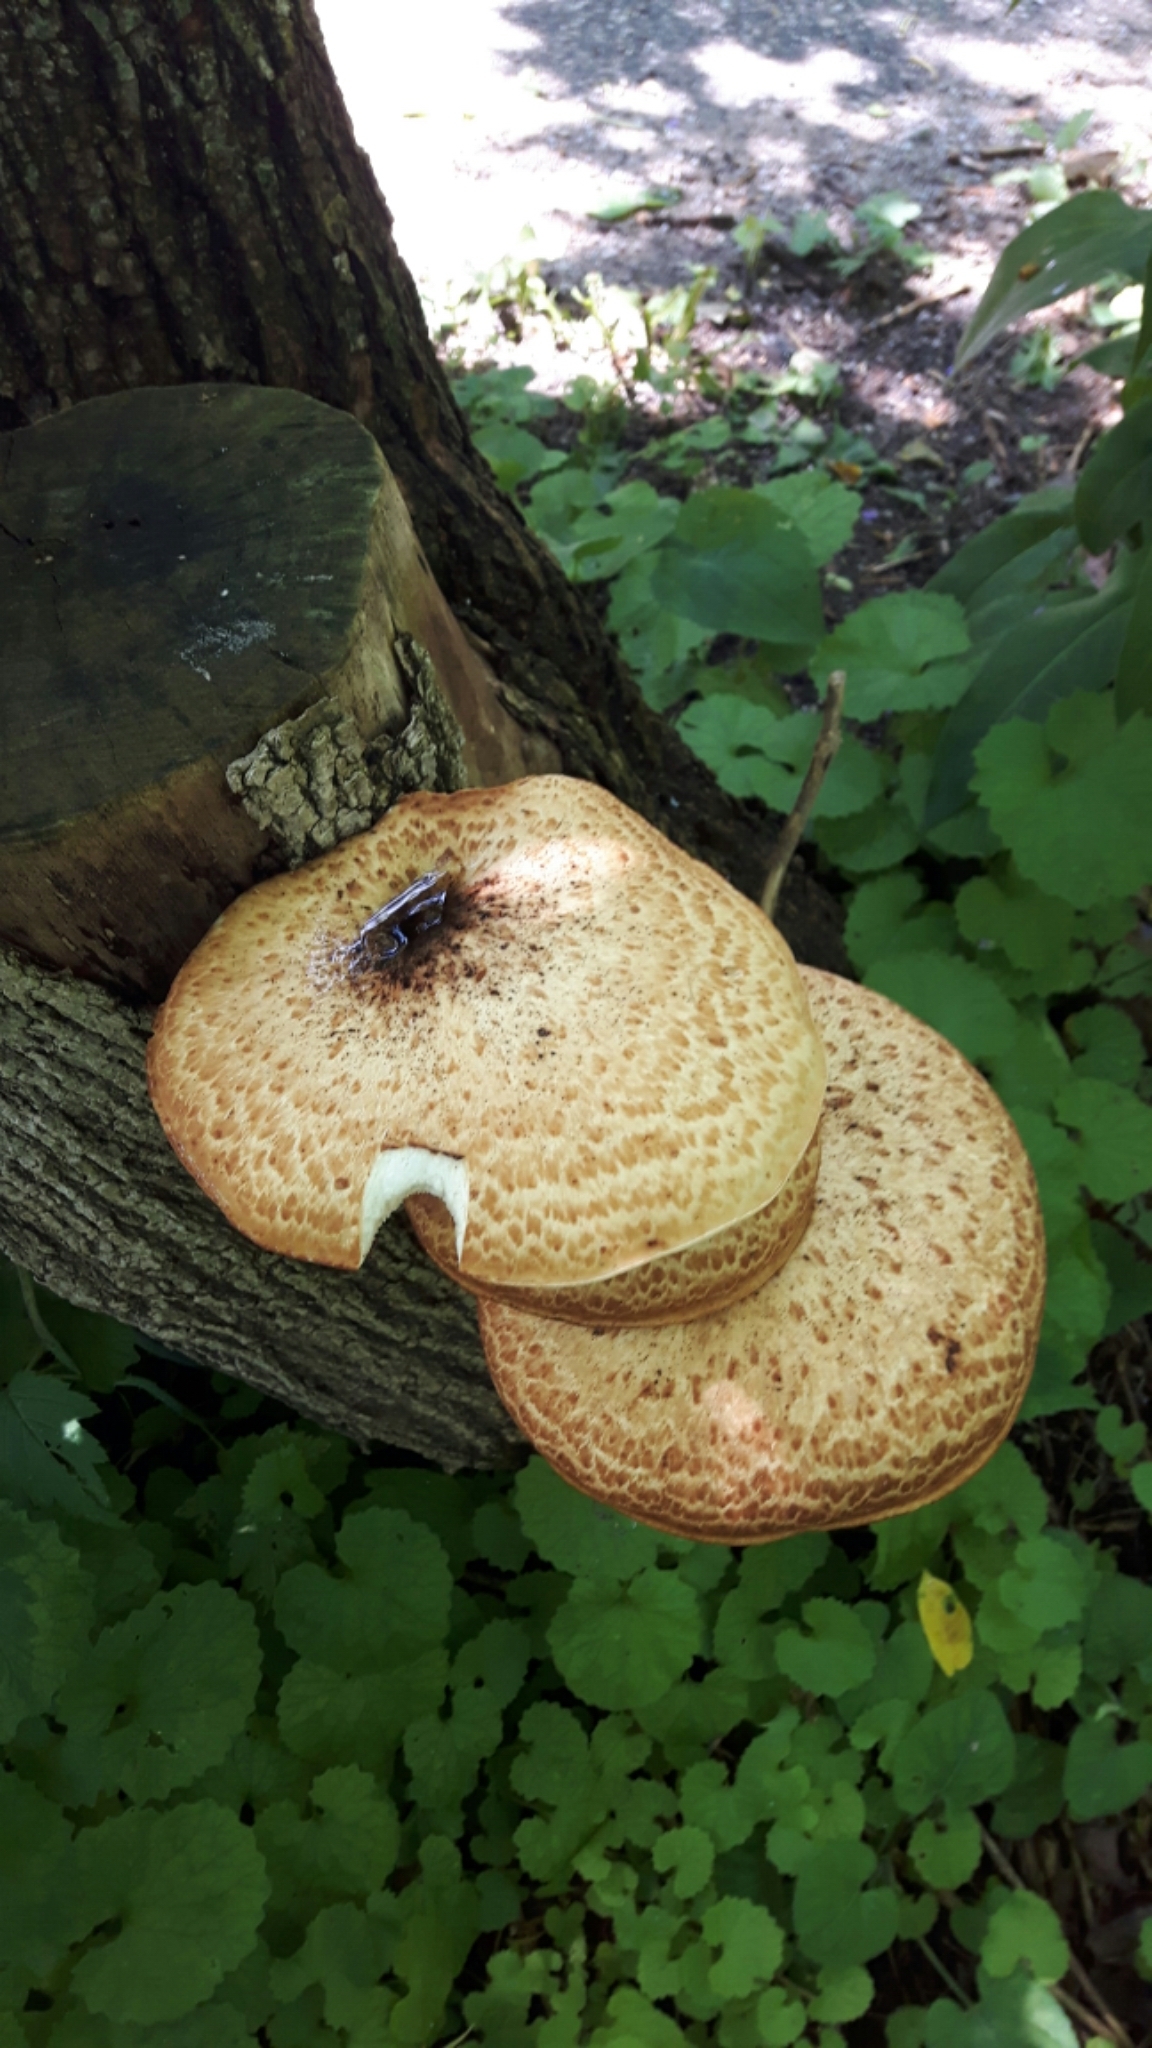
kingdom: Fungi
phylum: Basidiomycota
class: Agaricomycetes
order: Polyporales
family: Polyporaceae
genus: Cerioporus
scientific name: Cerioporus squamosus
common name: Dryad's saddle
